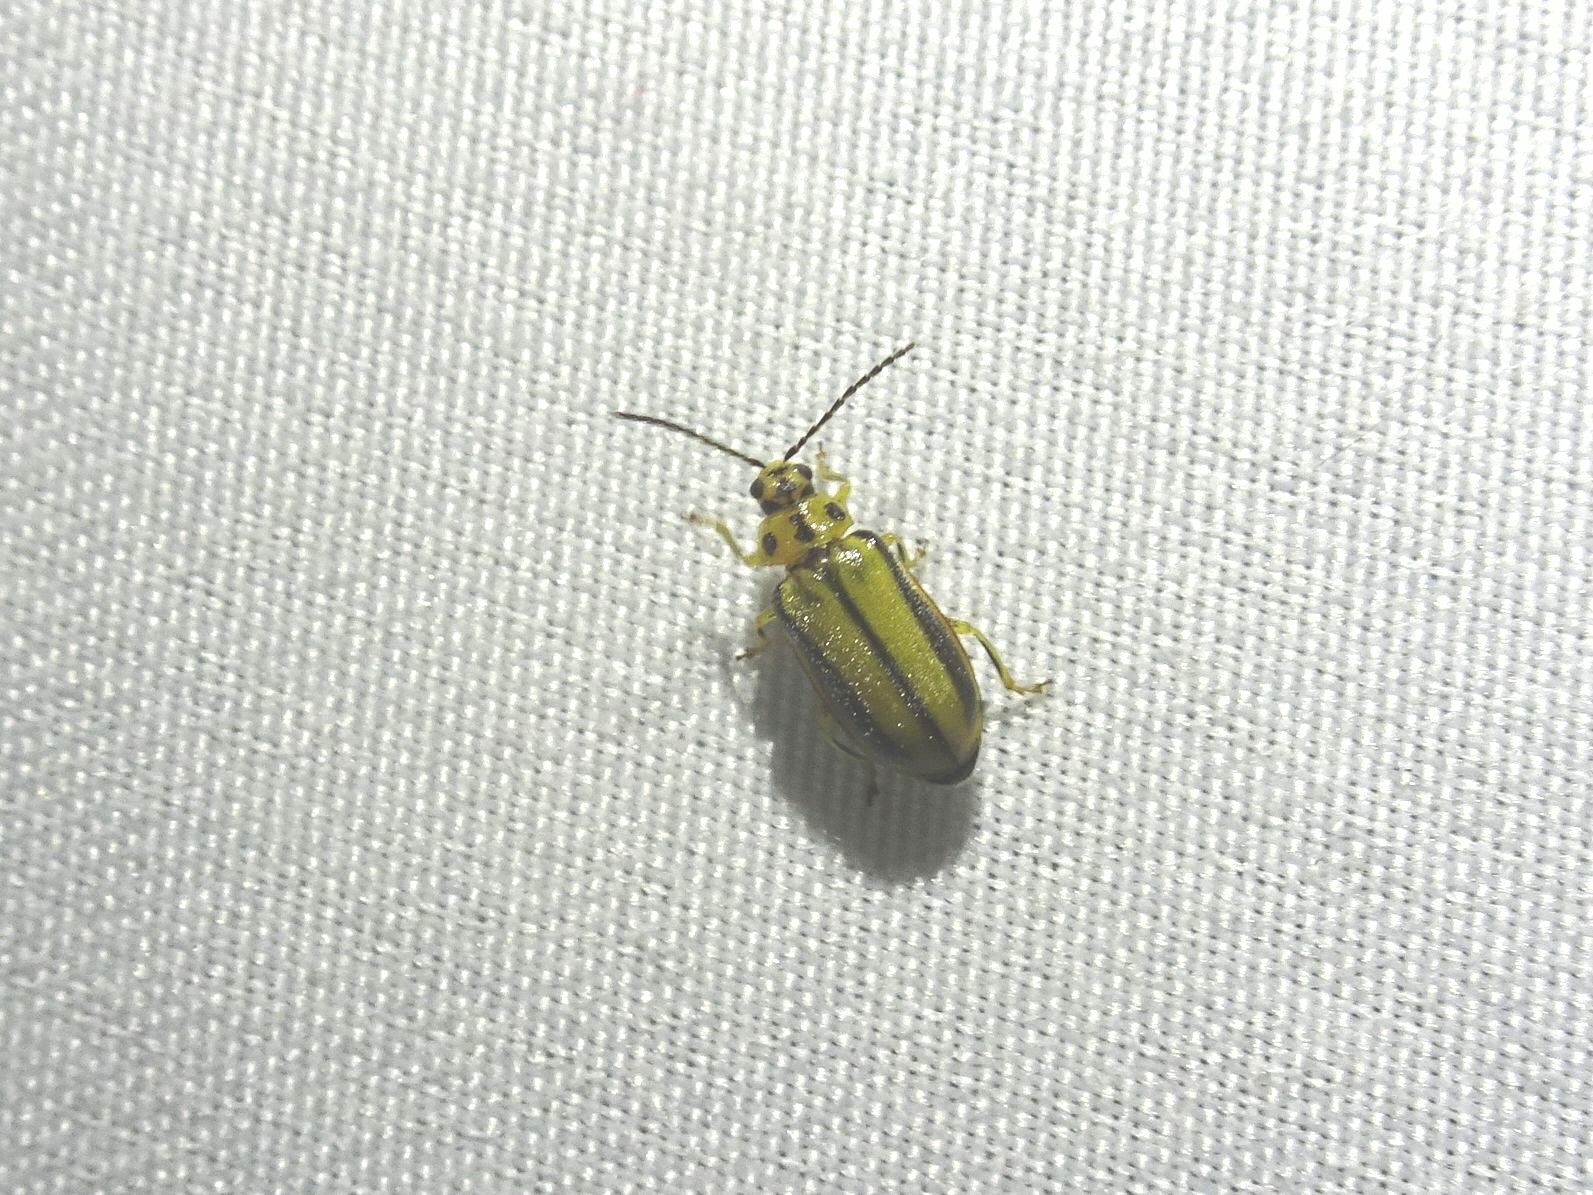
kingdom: Animalia
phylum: Arthropoda
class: Insecta
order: Coleoptera
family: Chrysomelidae
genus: Xanthogaleruca
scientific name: Xanthogaleruca luteola
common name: Elm leaf beetle
